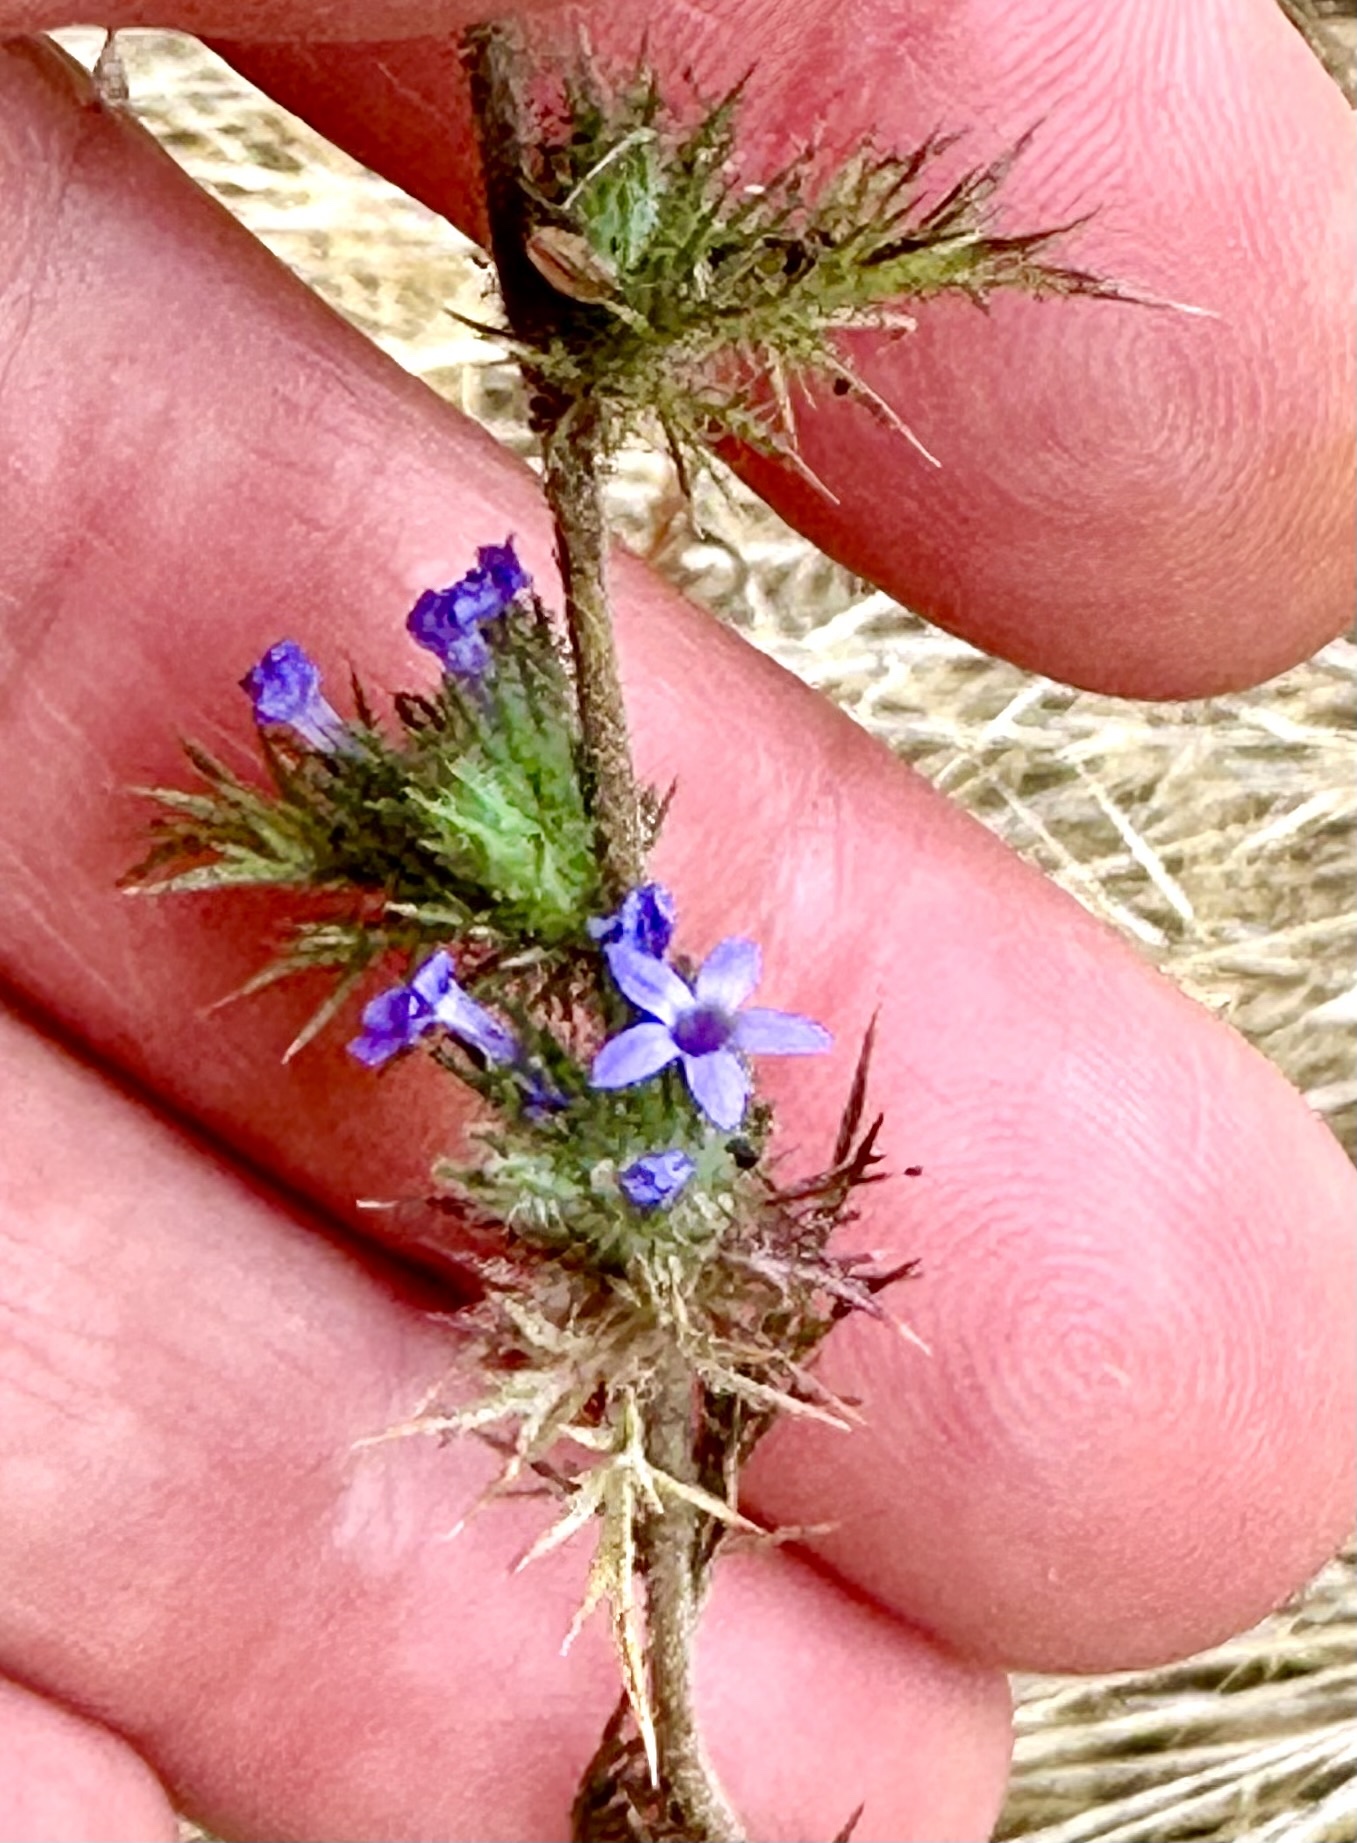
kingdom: Plantae
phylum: Tracheophyta
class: Magnoliopsida
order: Ericales
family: Polemoniaceae
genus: Navarretia
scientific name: Navarretia squarrosa
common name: Skunkweed
